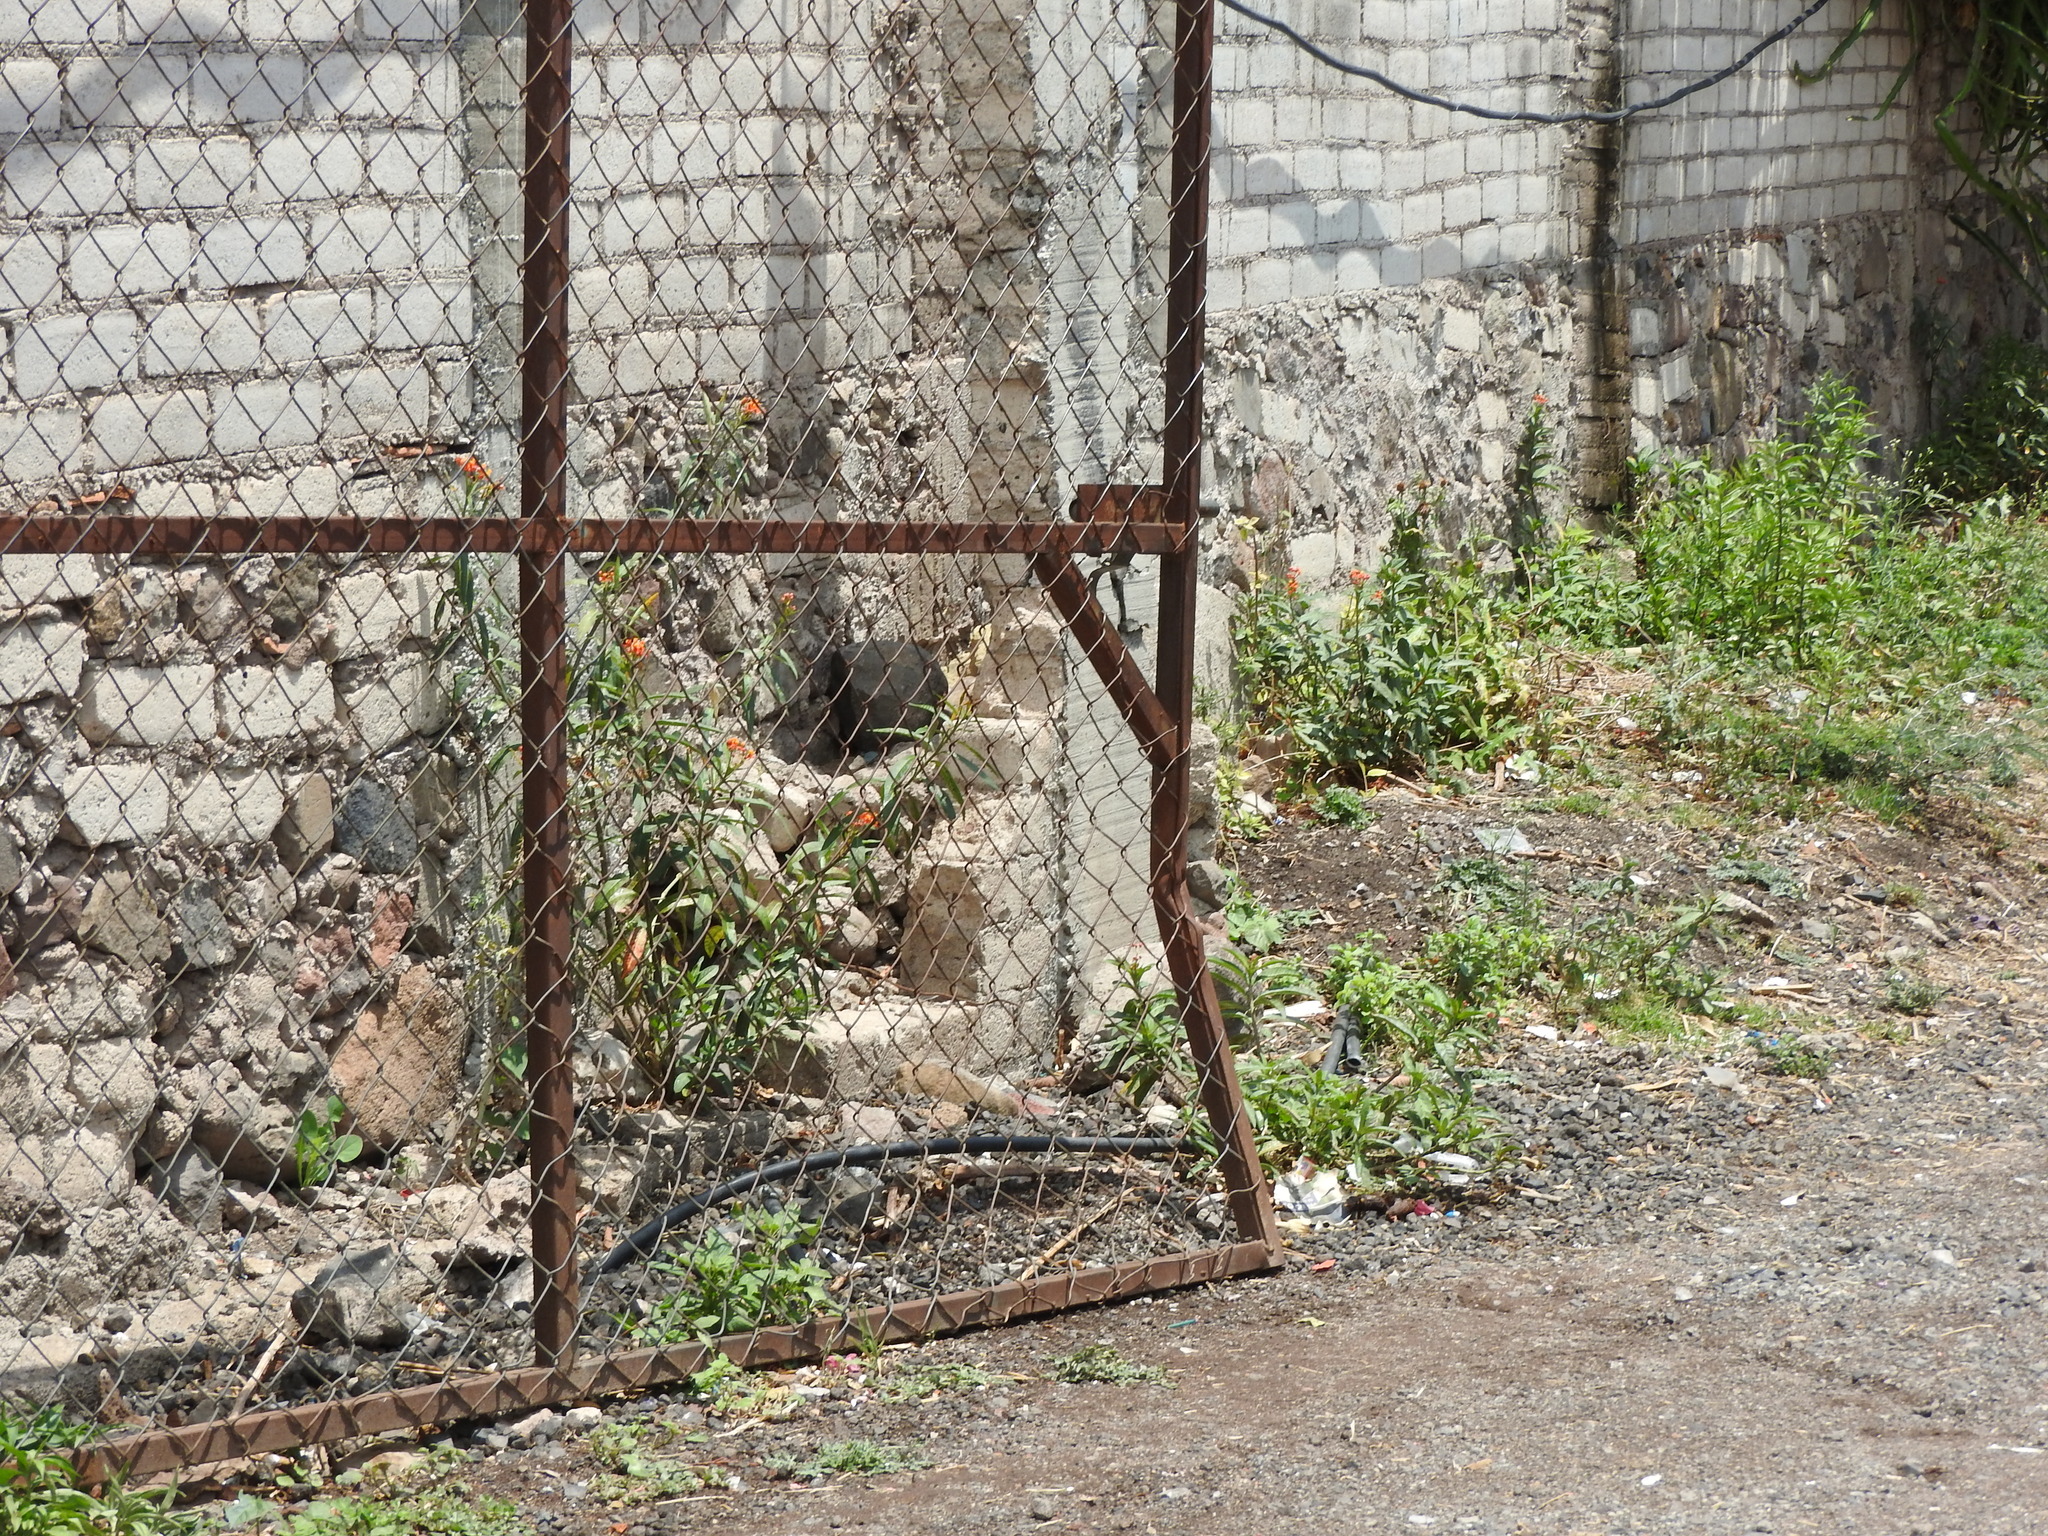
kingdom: Plantae
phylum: Tracheophyta
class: Magnoliopsida
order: Gentianales
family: Apocynaceae
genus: Asclepias
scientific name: Asclepias curassavica
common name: Bloodflower
